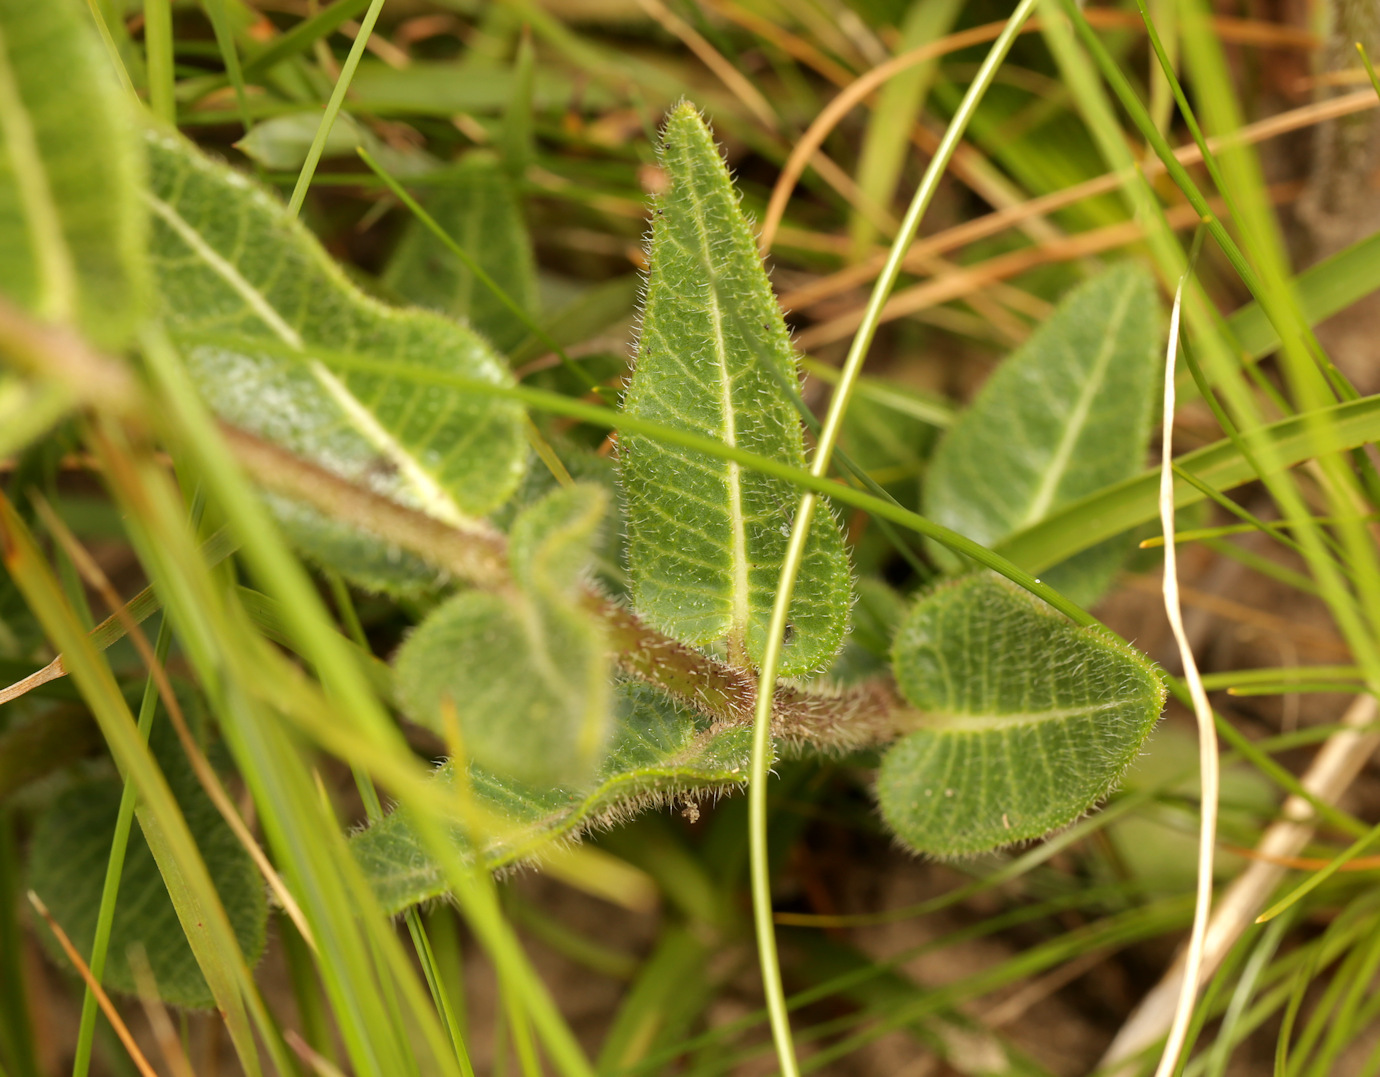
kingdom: Plantae
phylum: Tracheophyta
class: Magnoliopsida
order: Gentianales
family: Apocynaceae
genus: Asclepias
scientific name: Asclepias albens
